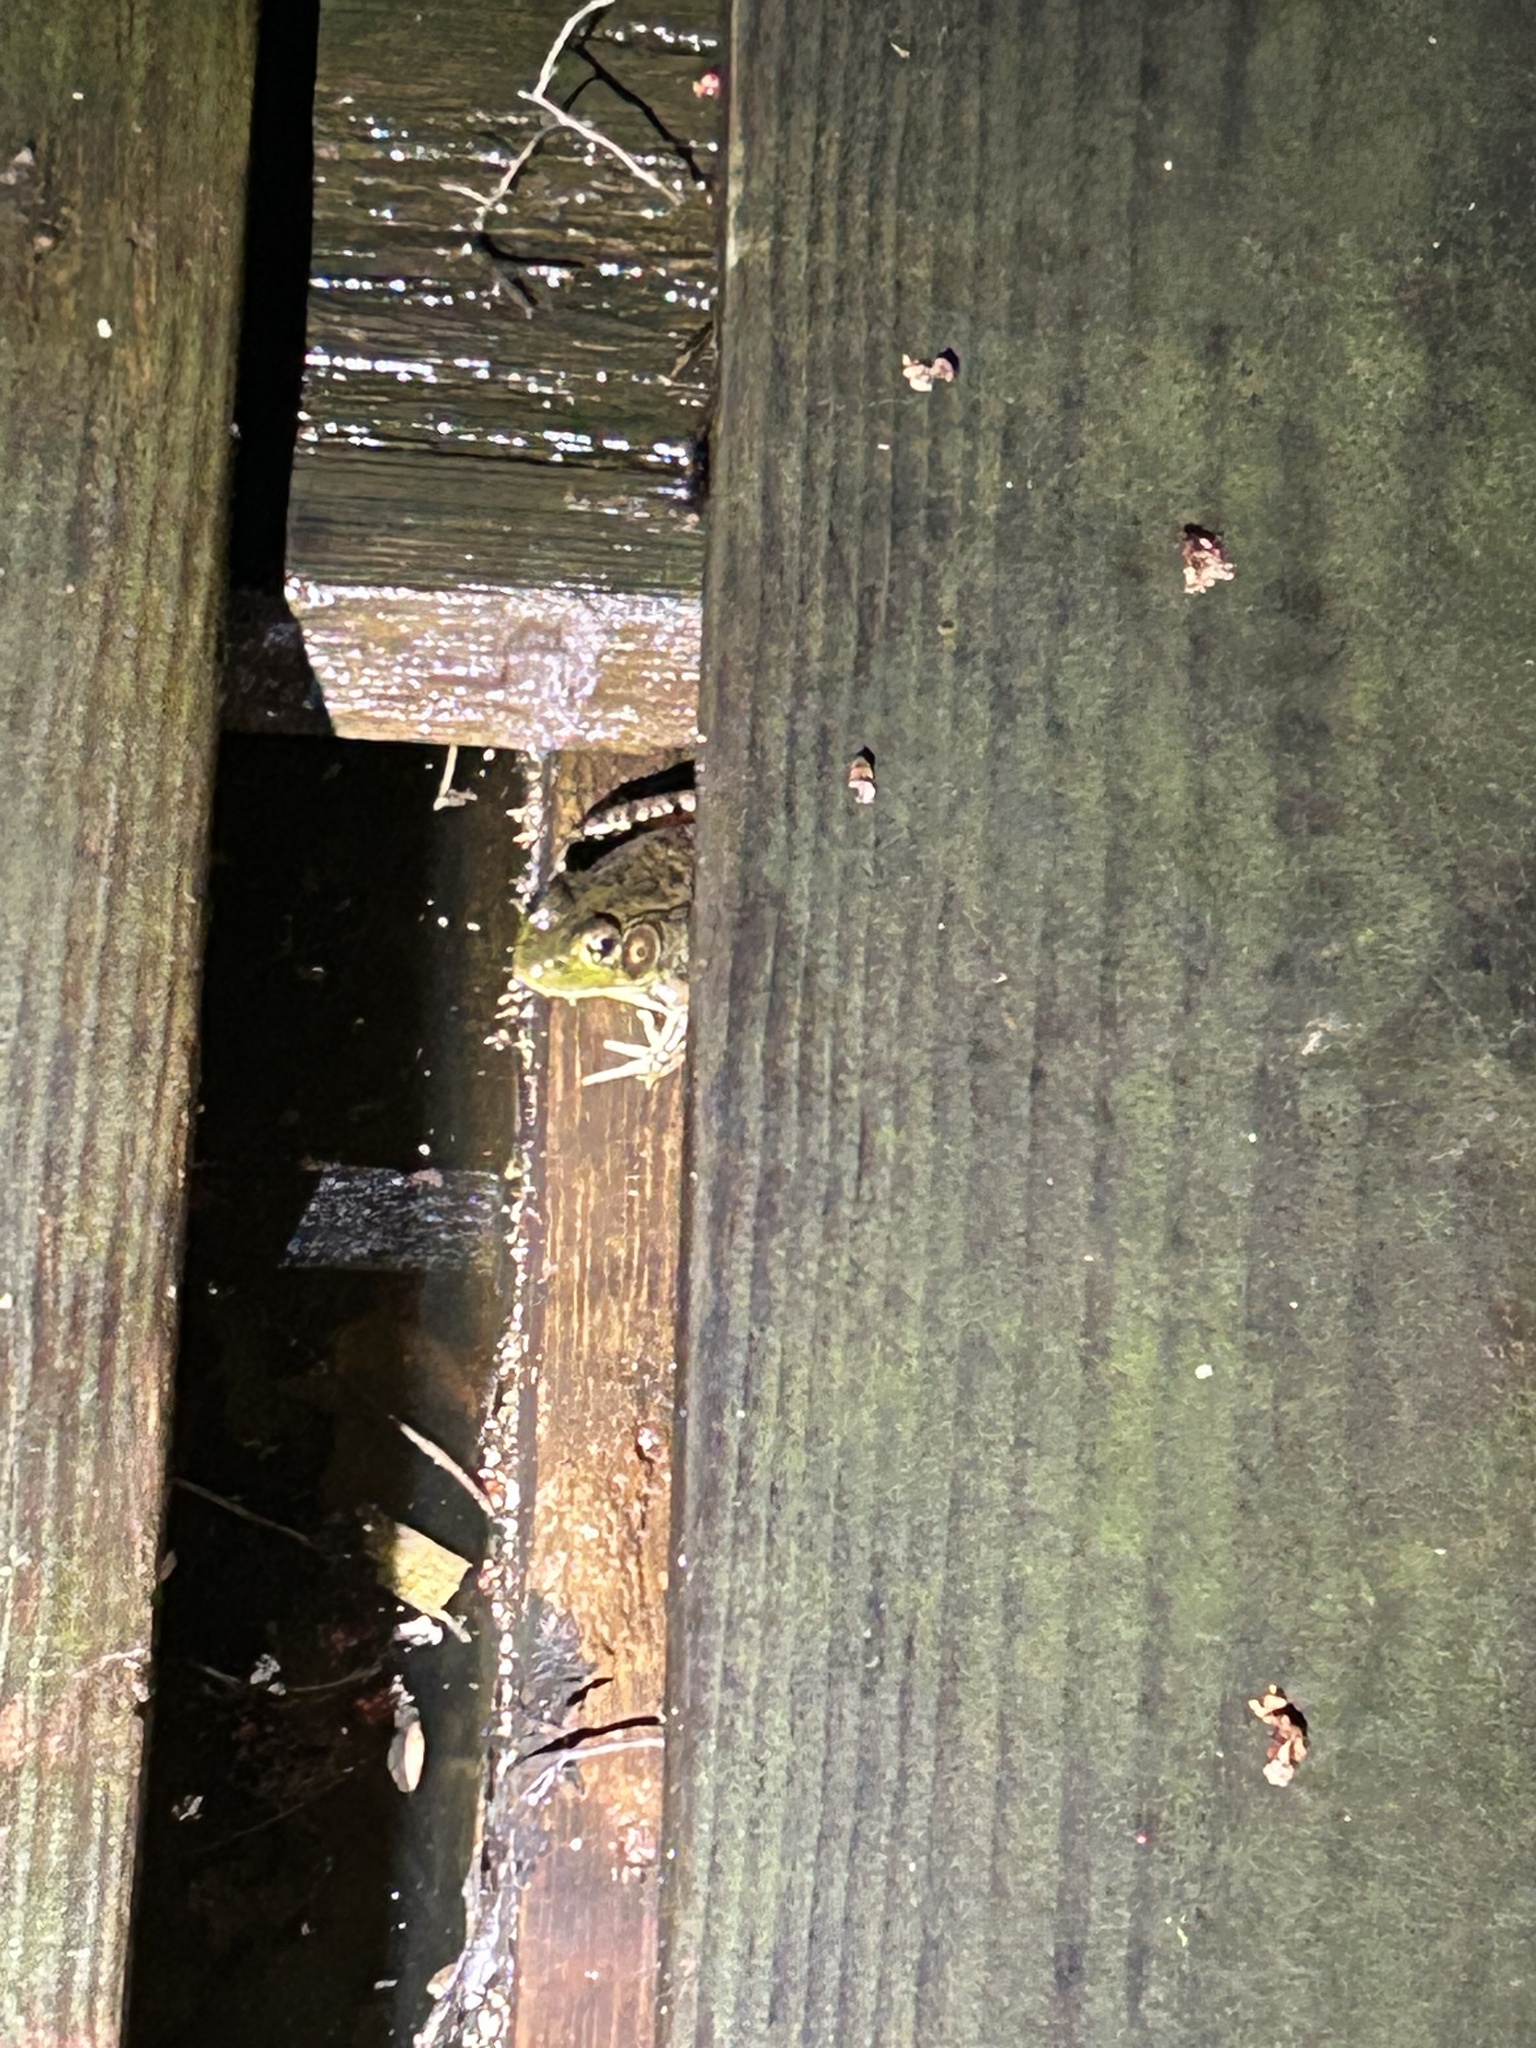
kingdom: Animalia
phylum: Chordata
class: Amphibia
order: Anura
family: Ranidae
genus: Lithobates
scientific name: Lithobates clamitans
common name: Green frog
